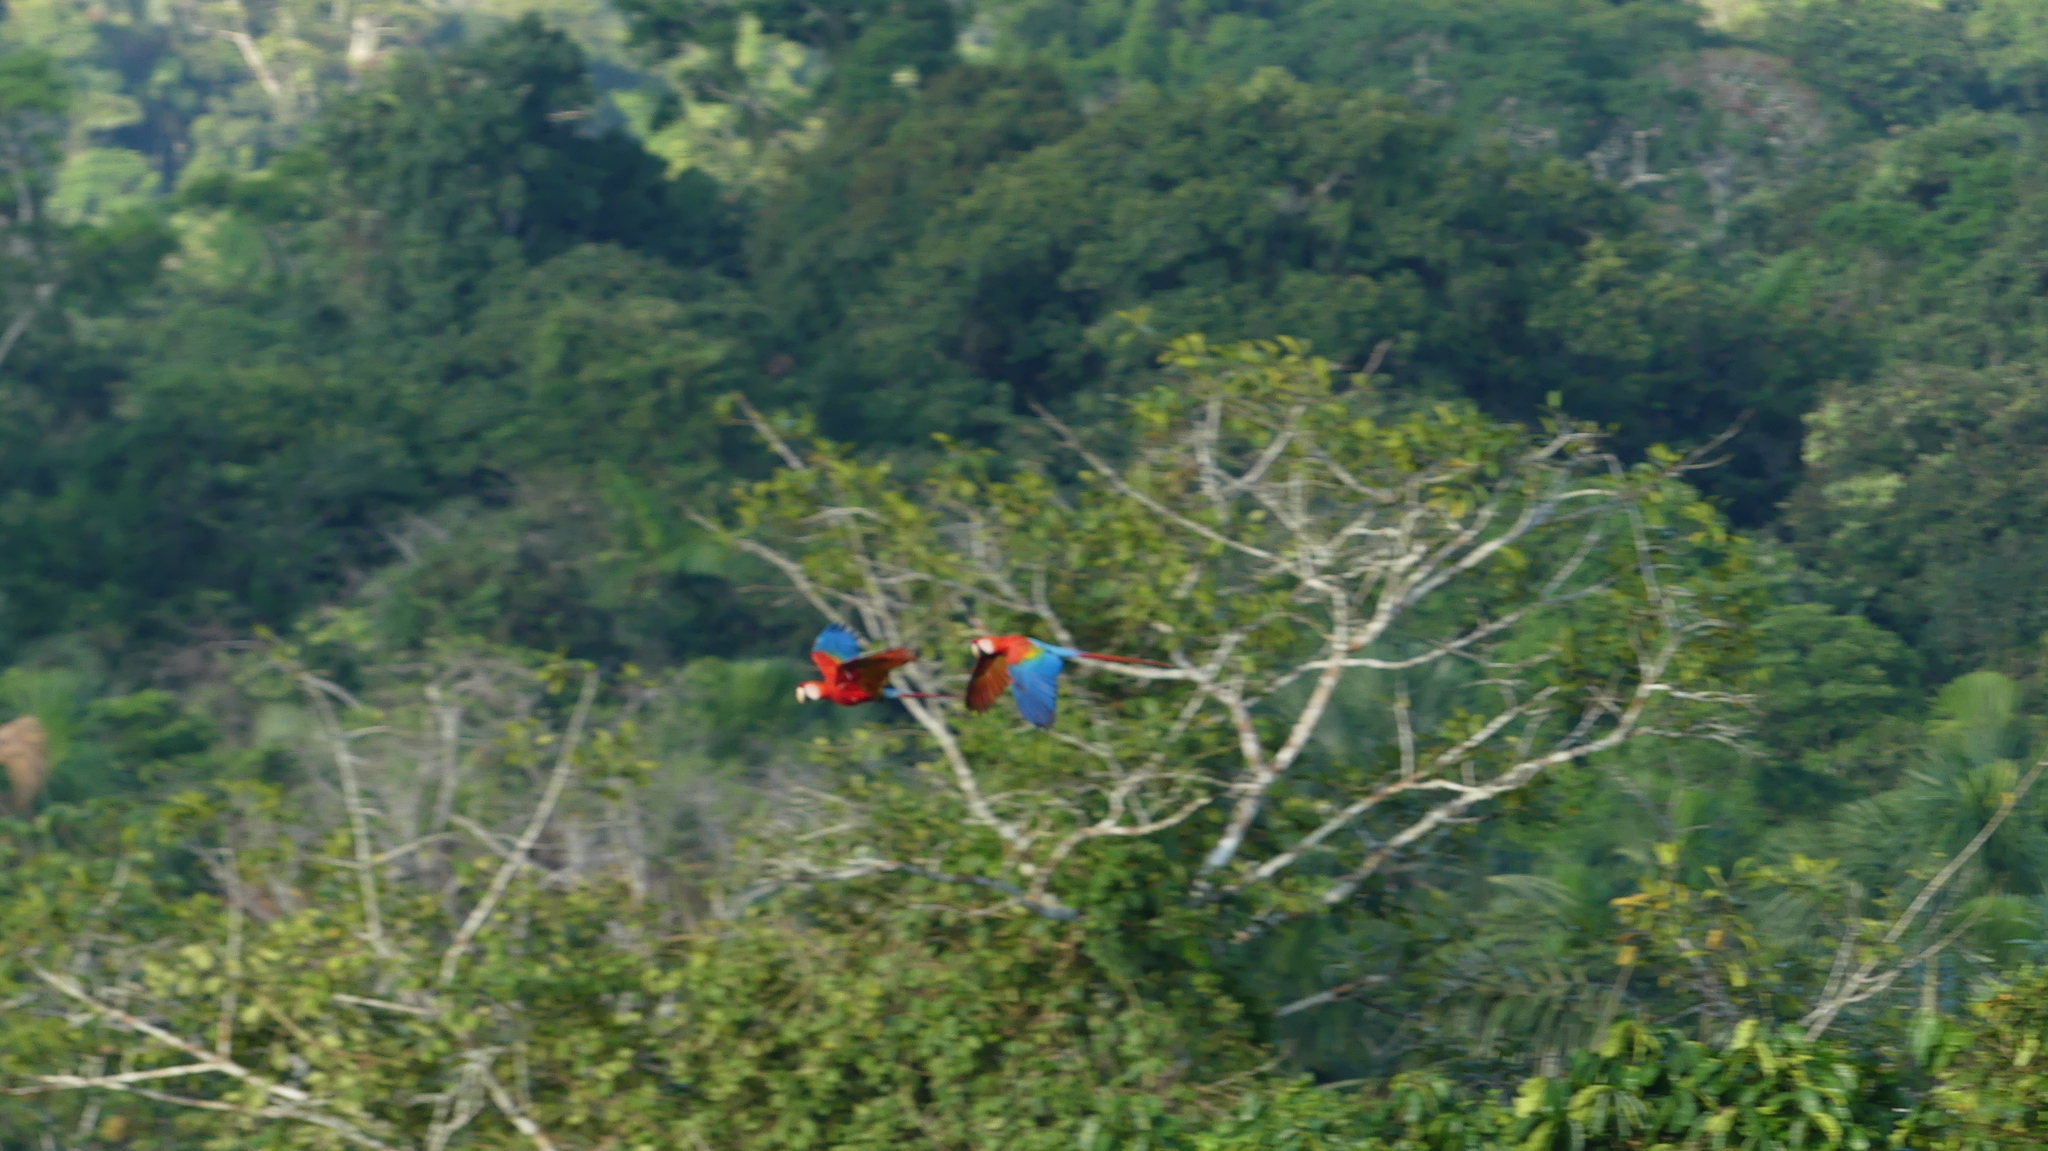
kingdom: Animalia
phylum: Chordata
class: Aves
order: Psittaciformes
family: Psittacidae
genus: Ara
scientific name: Ara macao
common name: Scarlet macaw
